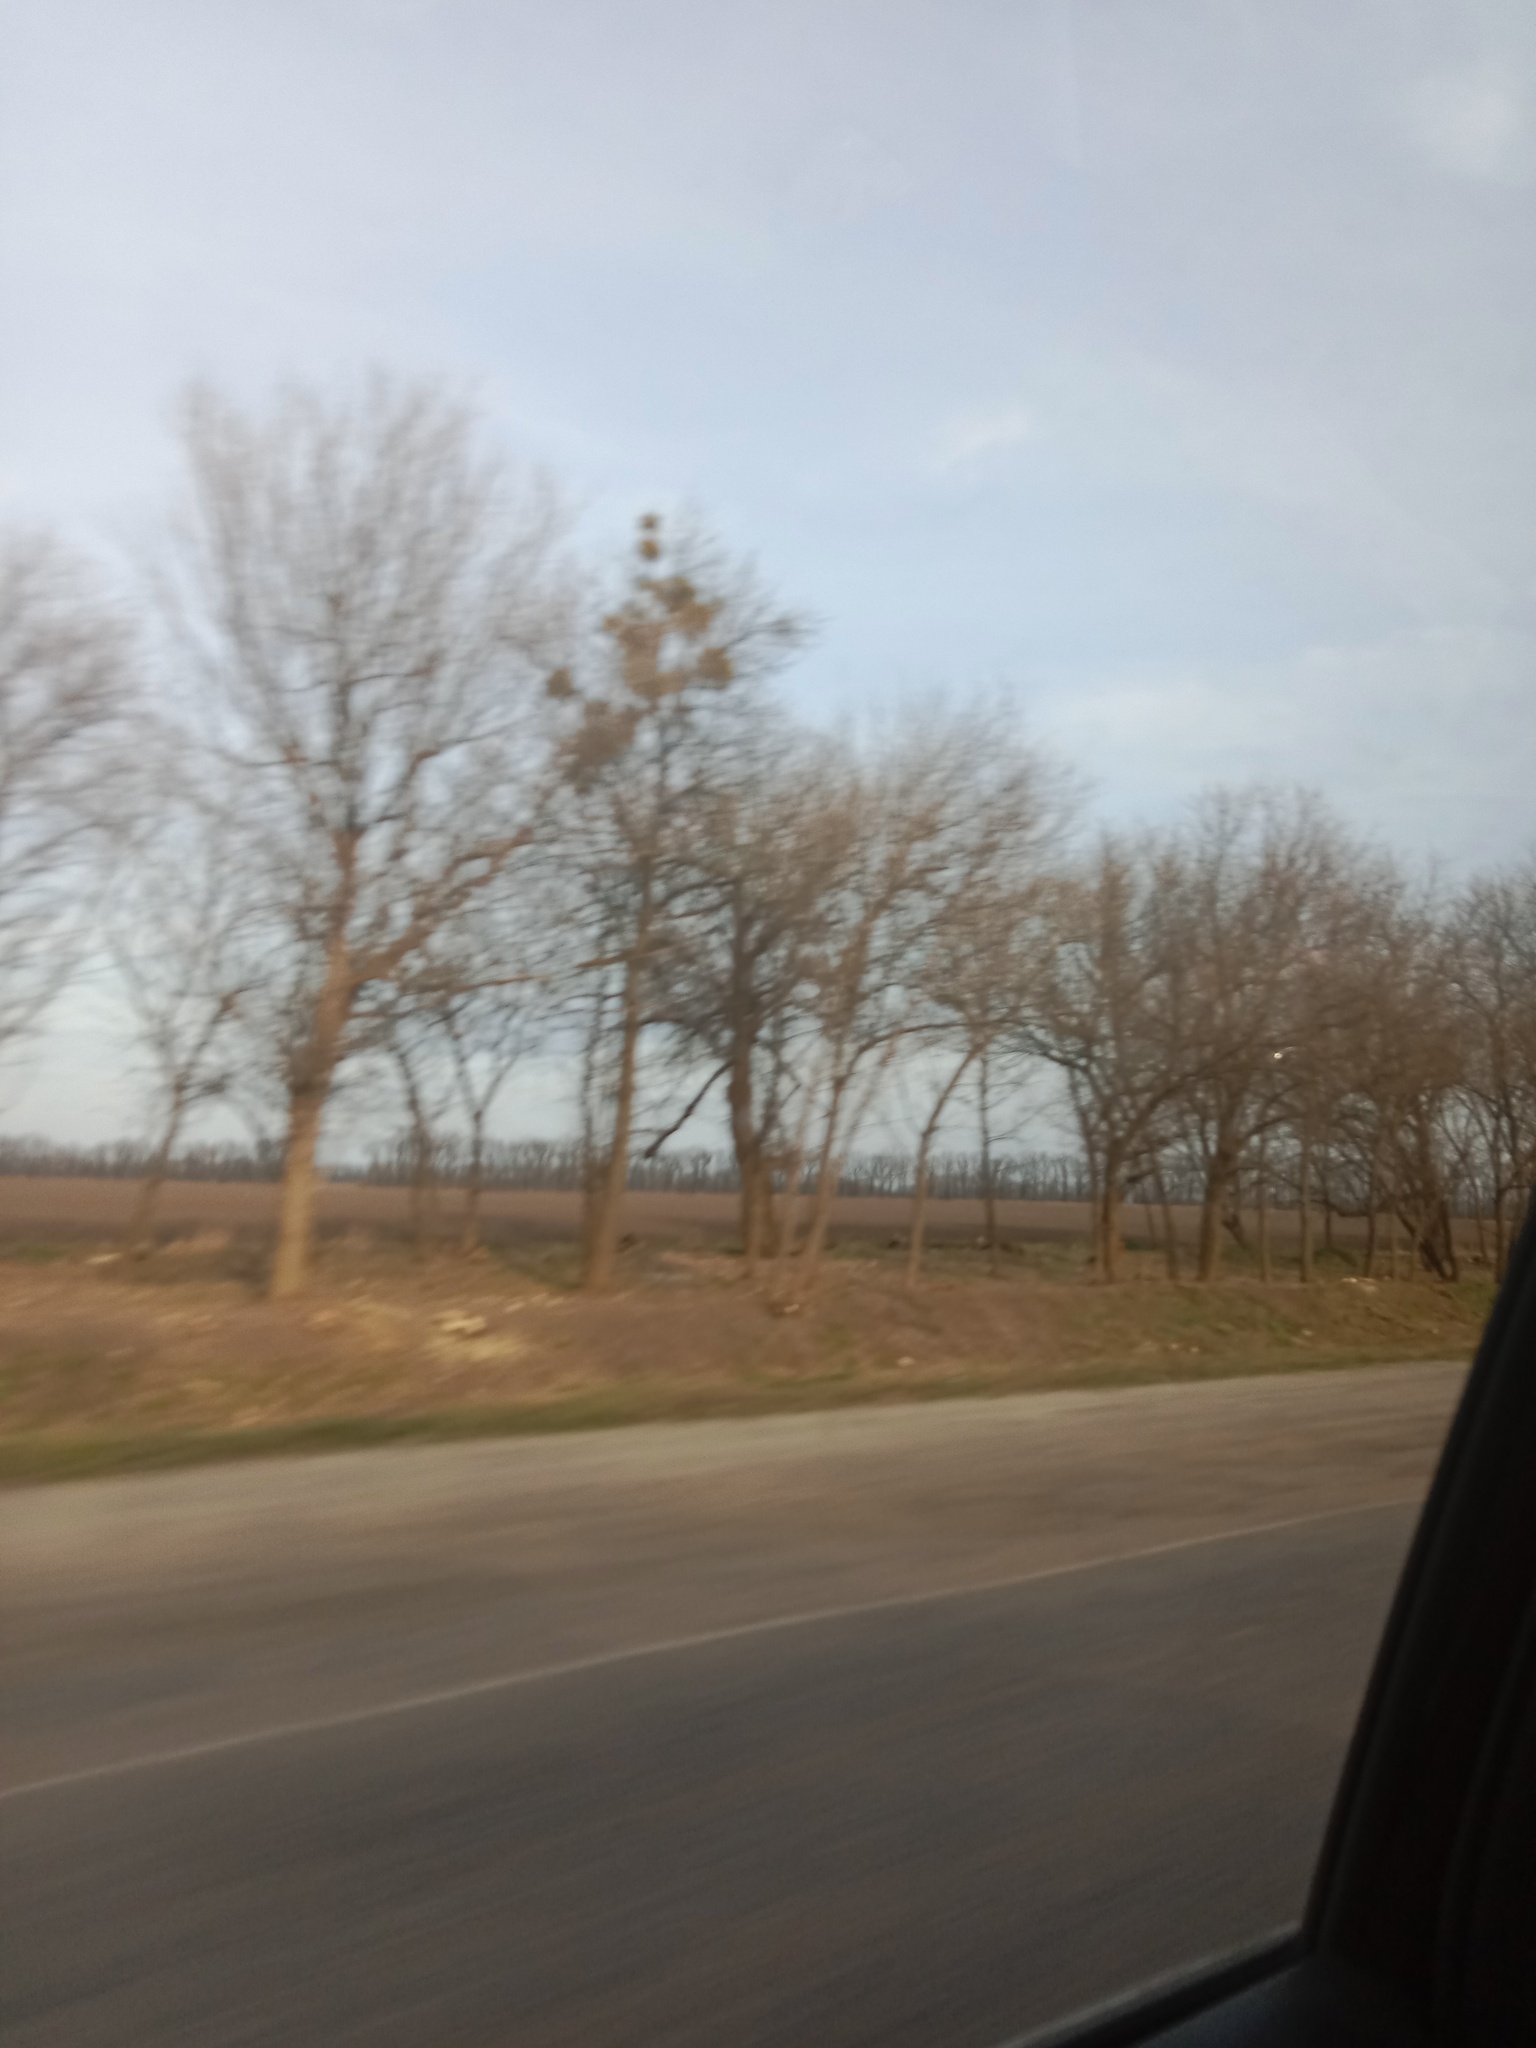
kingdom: Plantae
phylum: Tracheophyta
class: Magnoliopsida
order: Santalales
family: Viscaceae
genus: Viscum
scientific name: Viscum album
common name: Mistletoe
